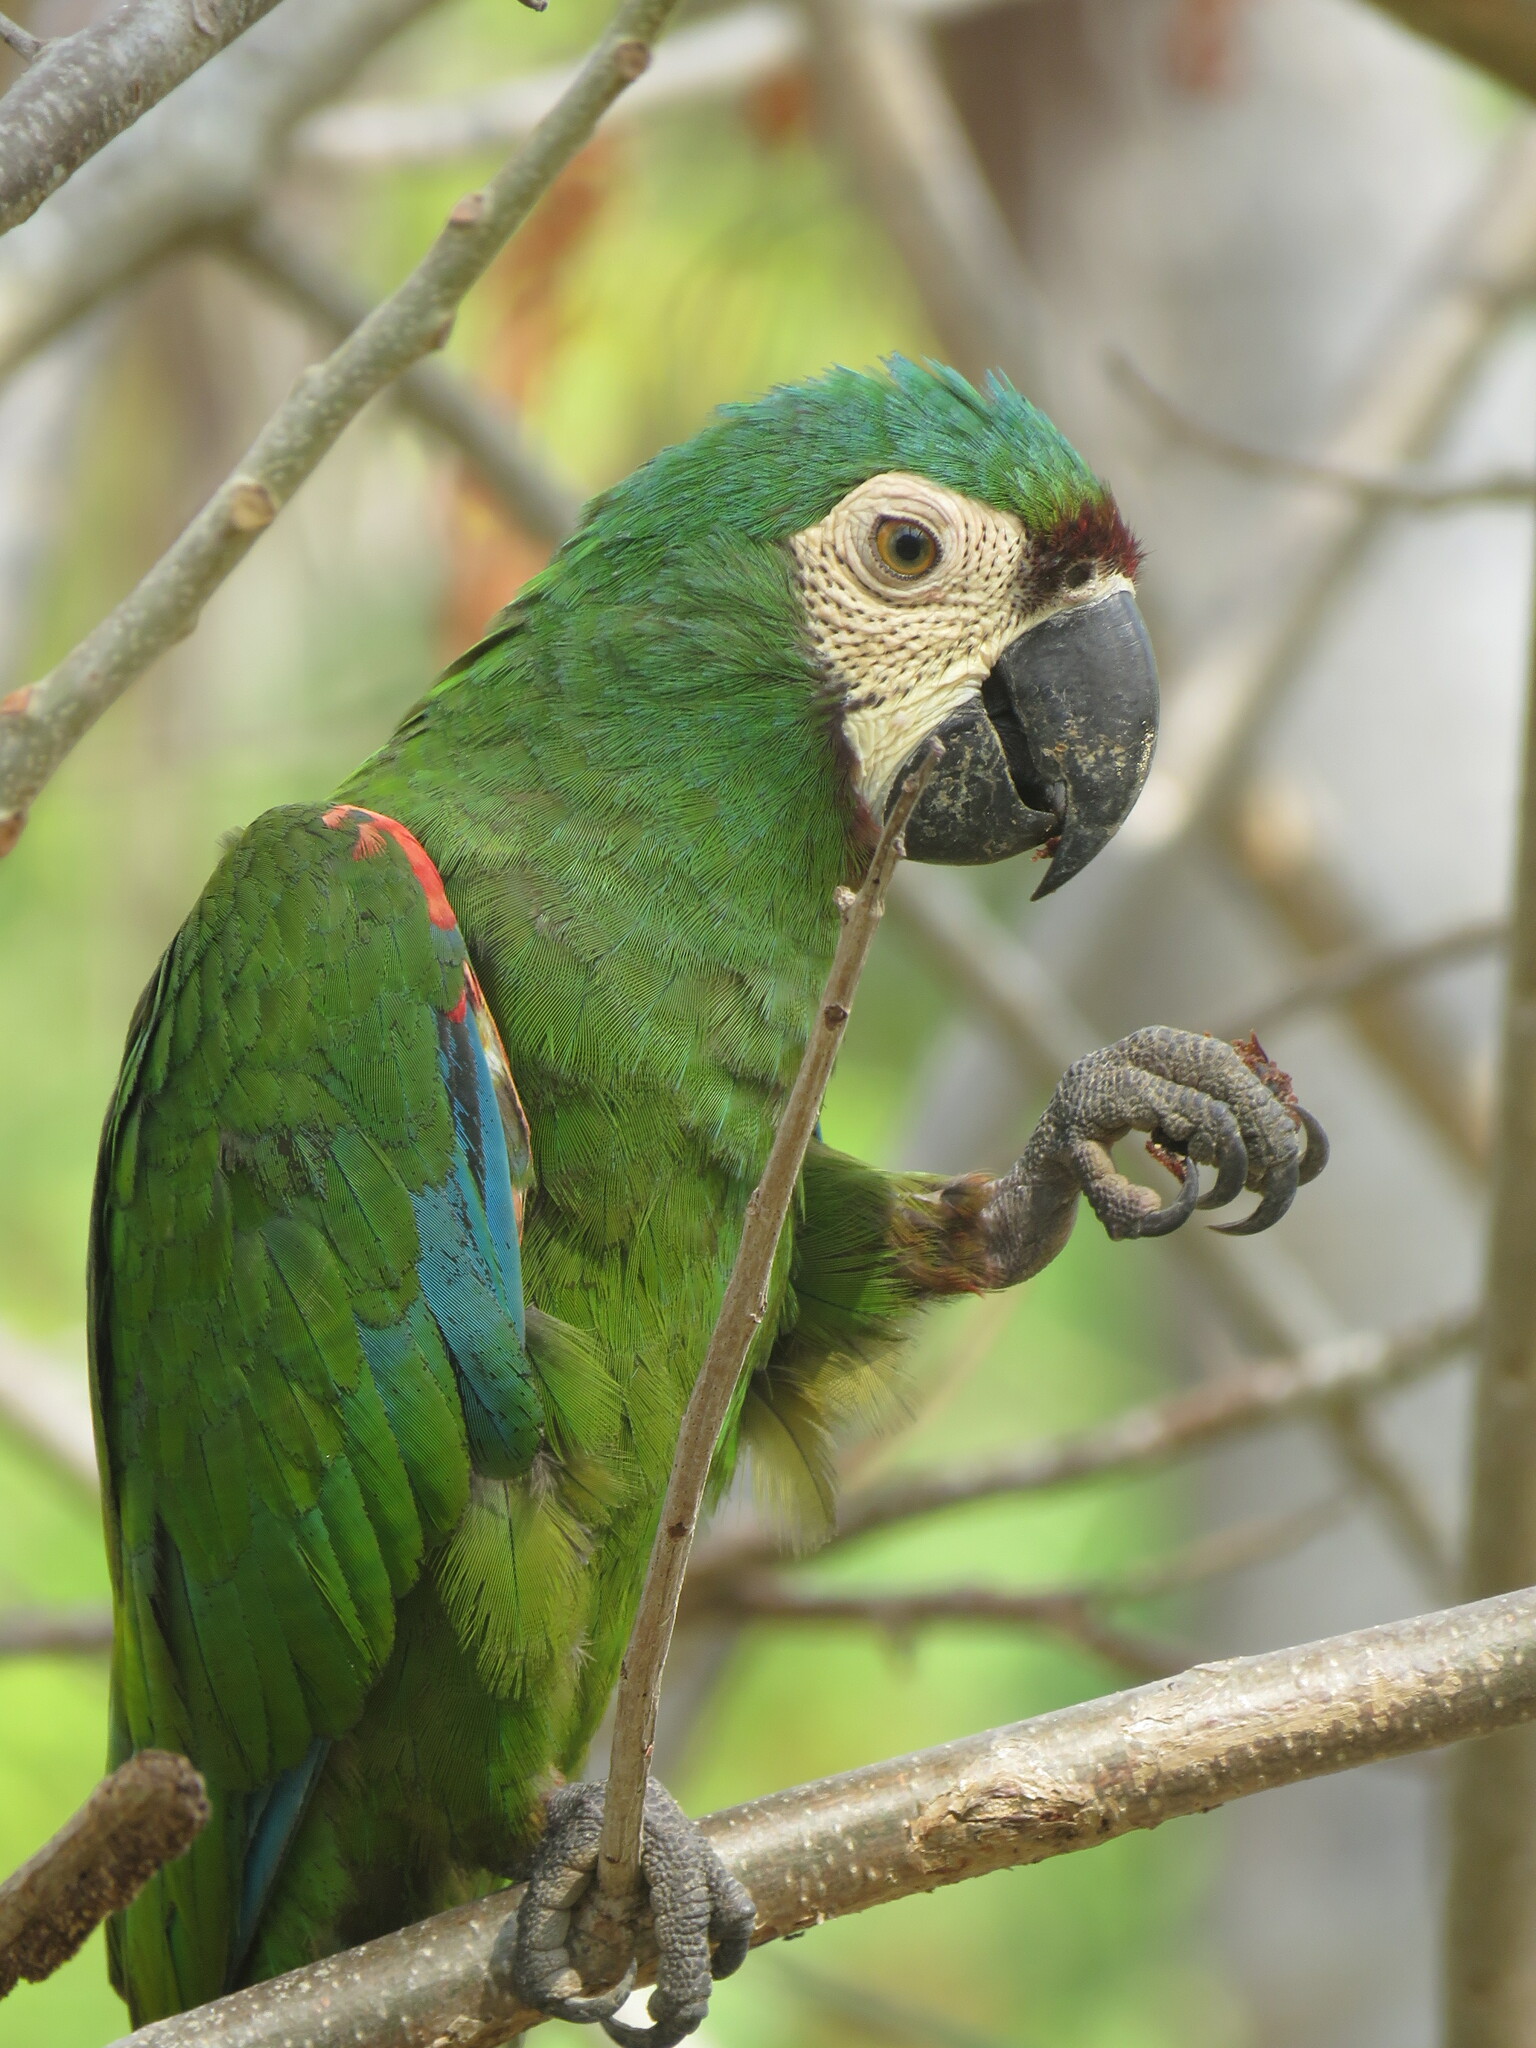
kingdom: Animalia
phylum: Chordata
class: Aves
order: Psittaciformes
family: Psittacidae
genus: Ara
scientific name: Ara severus
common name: Chestnut-fronted macaw
